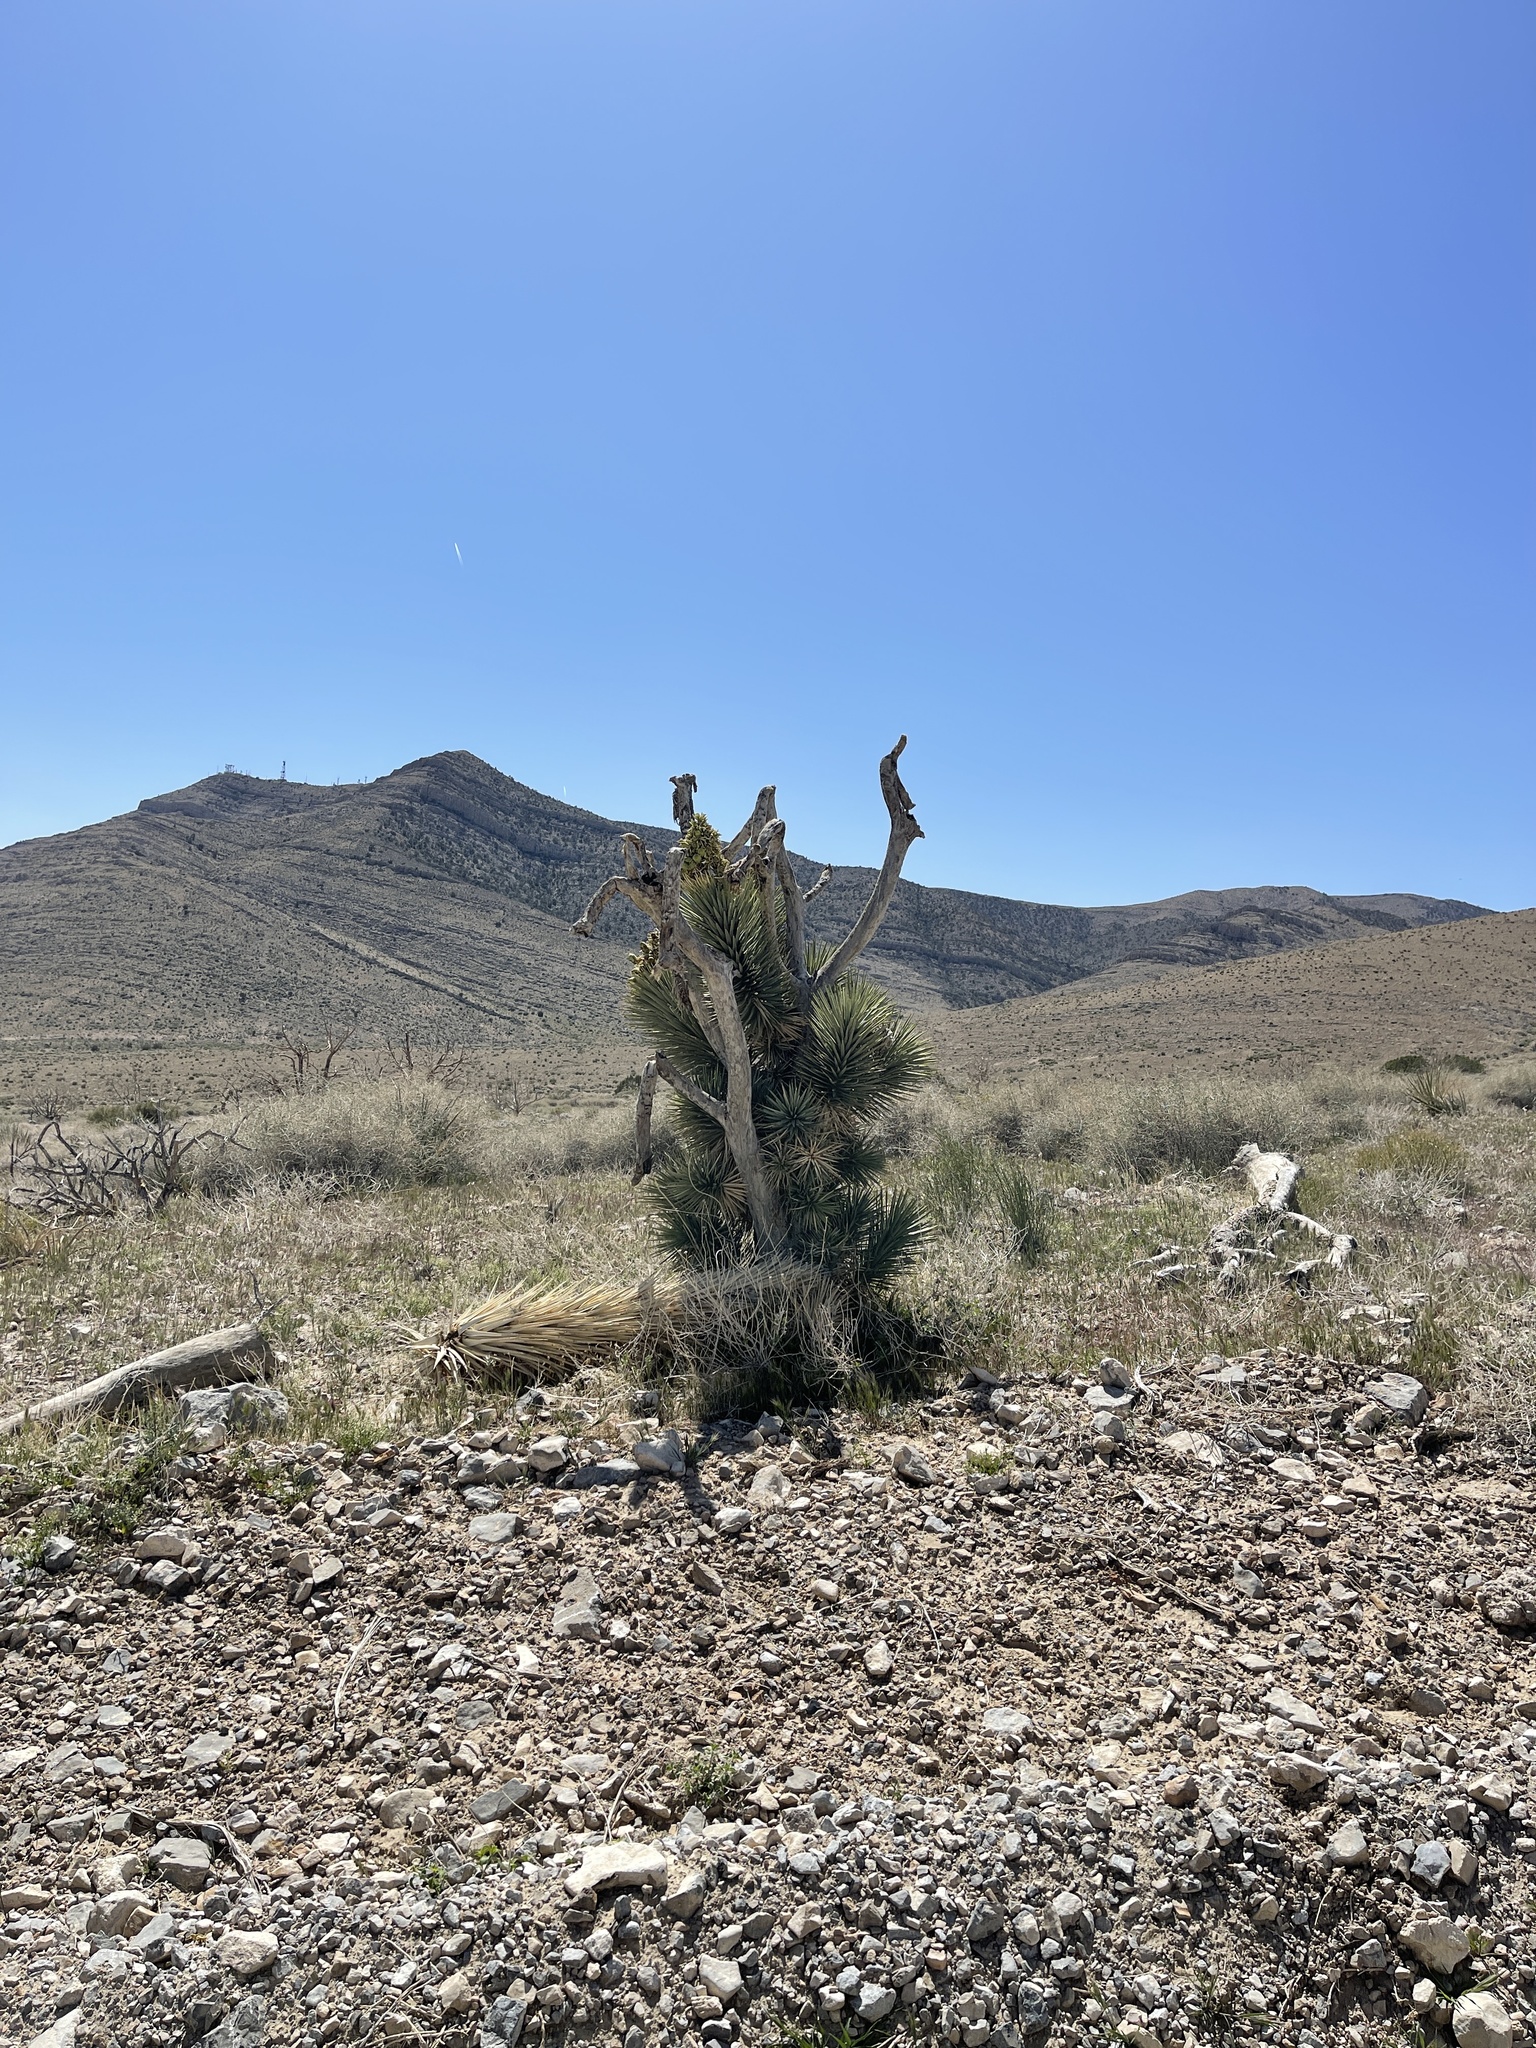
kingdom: Plantae
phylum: Tracheophyta
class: Liliopsida
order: Asparagales
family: Asparagaceae
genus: Yucca
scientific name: Yucca brevifolia
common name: Joshua tree
